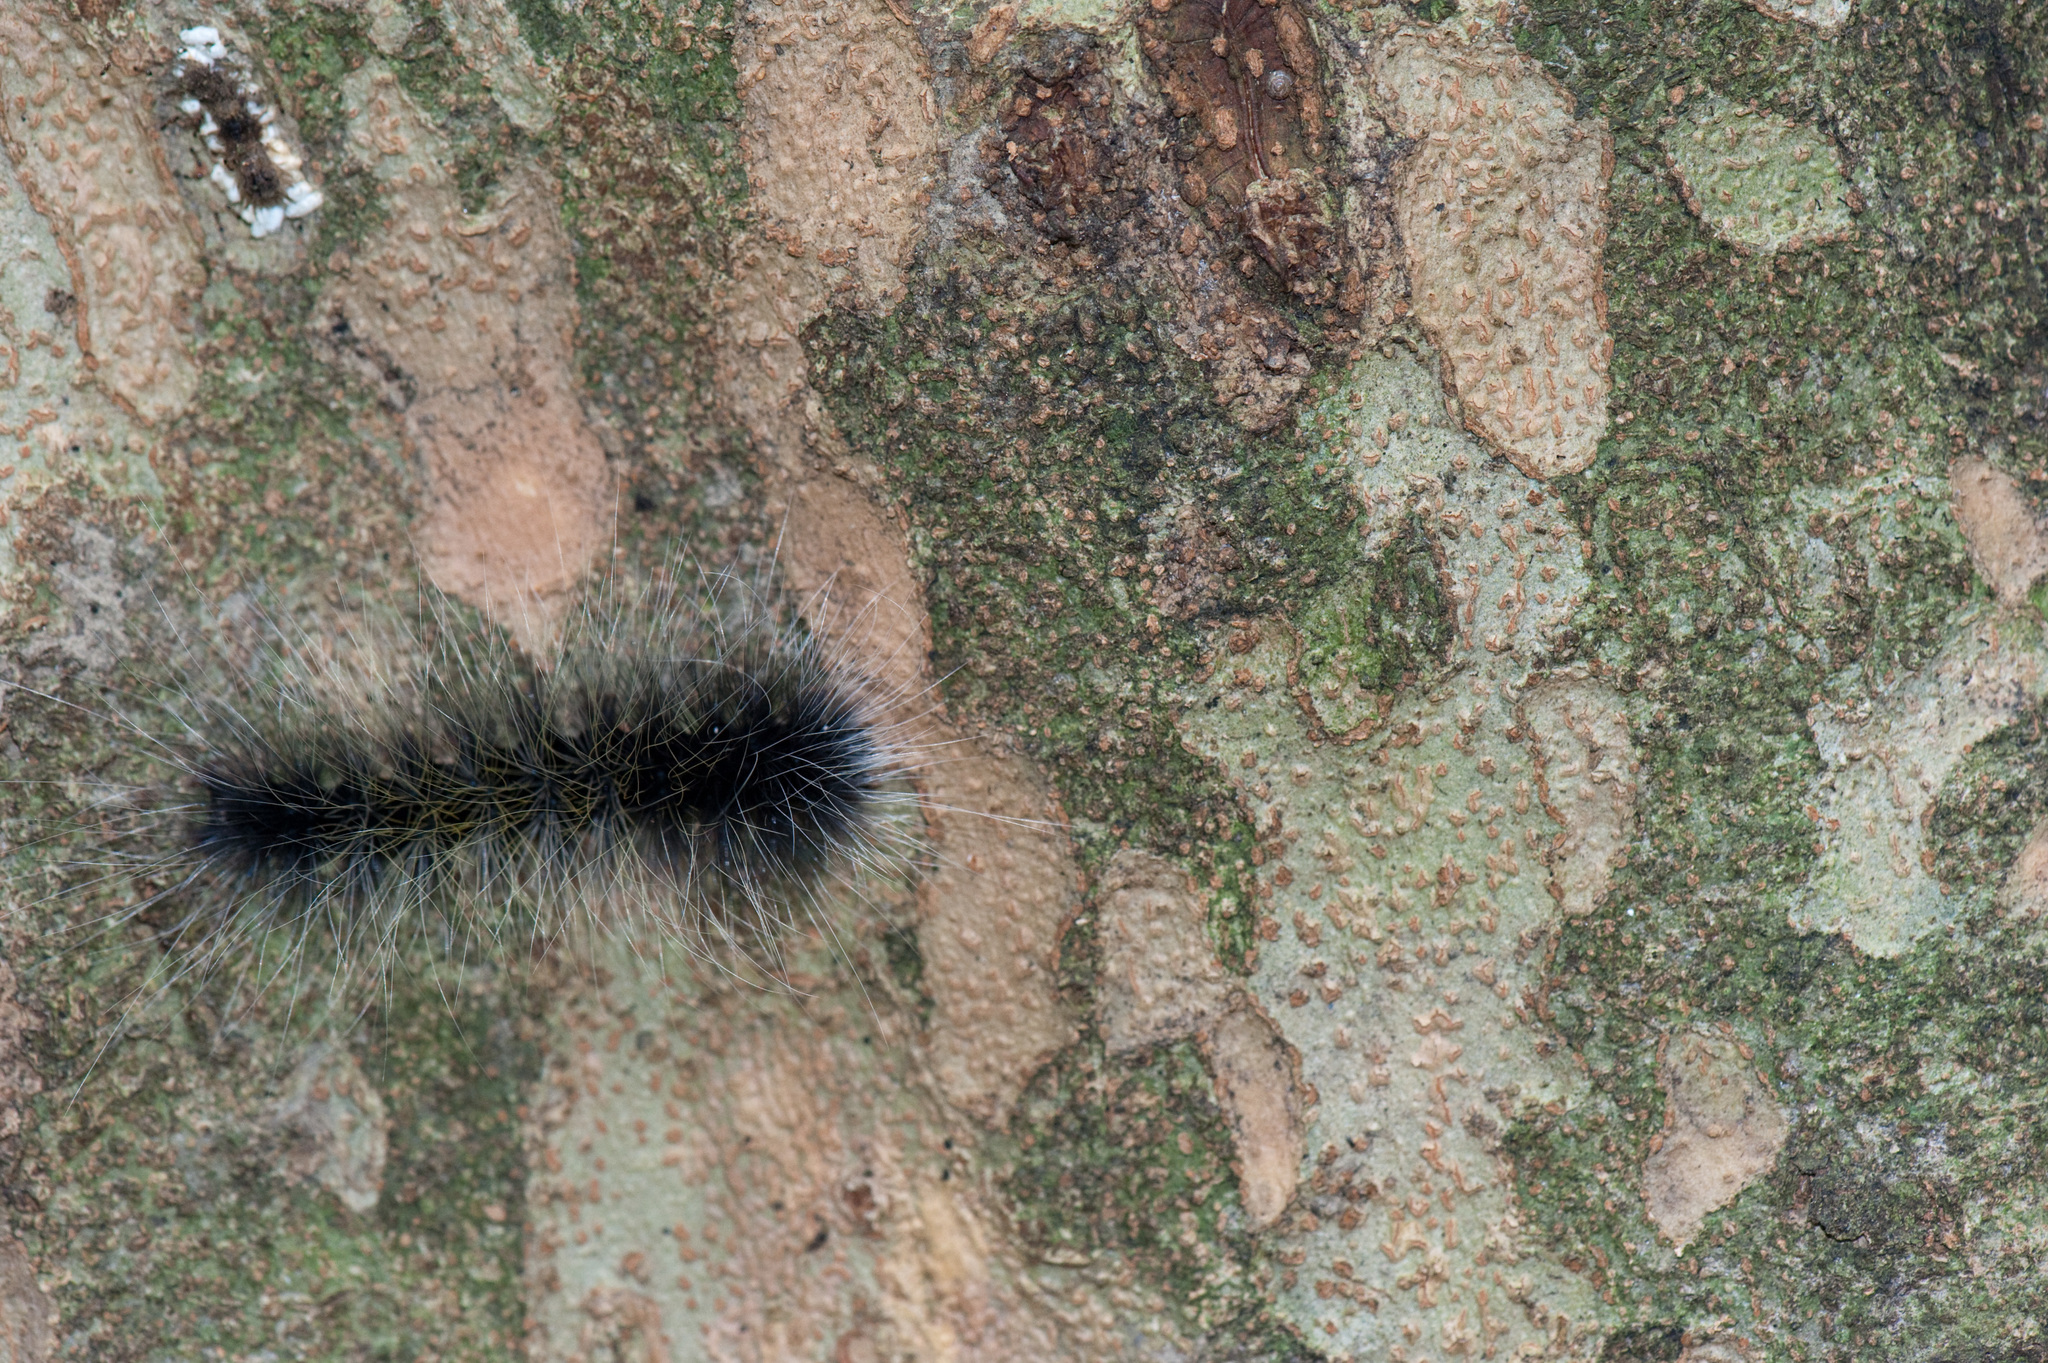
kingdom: Animalia
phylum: Arthropoda
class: Insecta
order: Lepidoptera
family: Erebidae
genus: Macrobrochis
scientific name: Macrobrochis gigas
